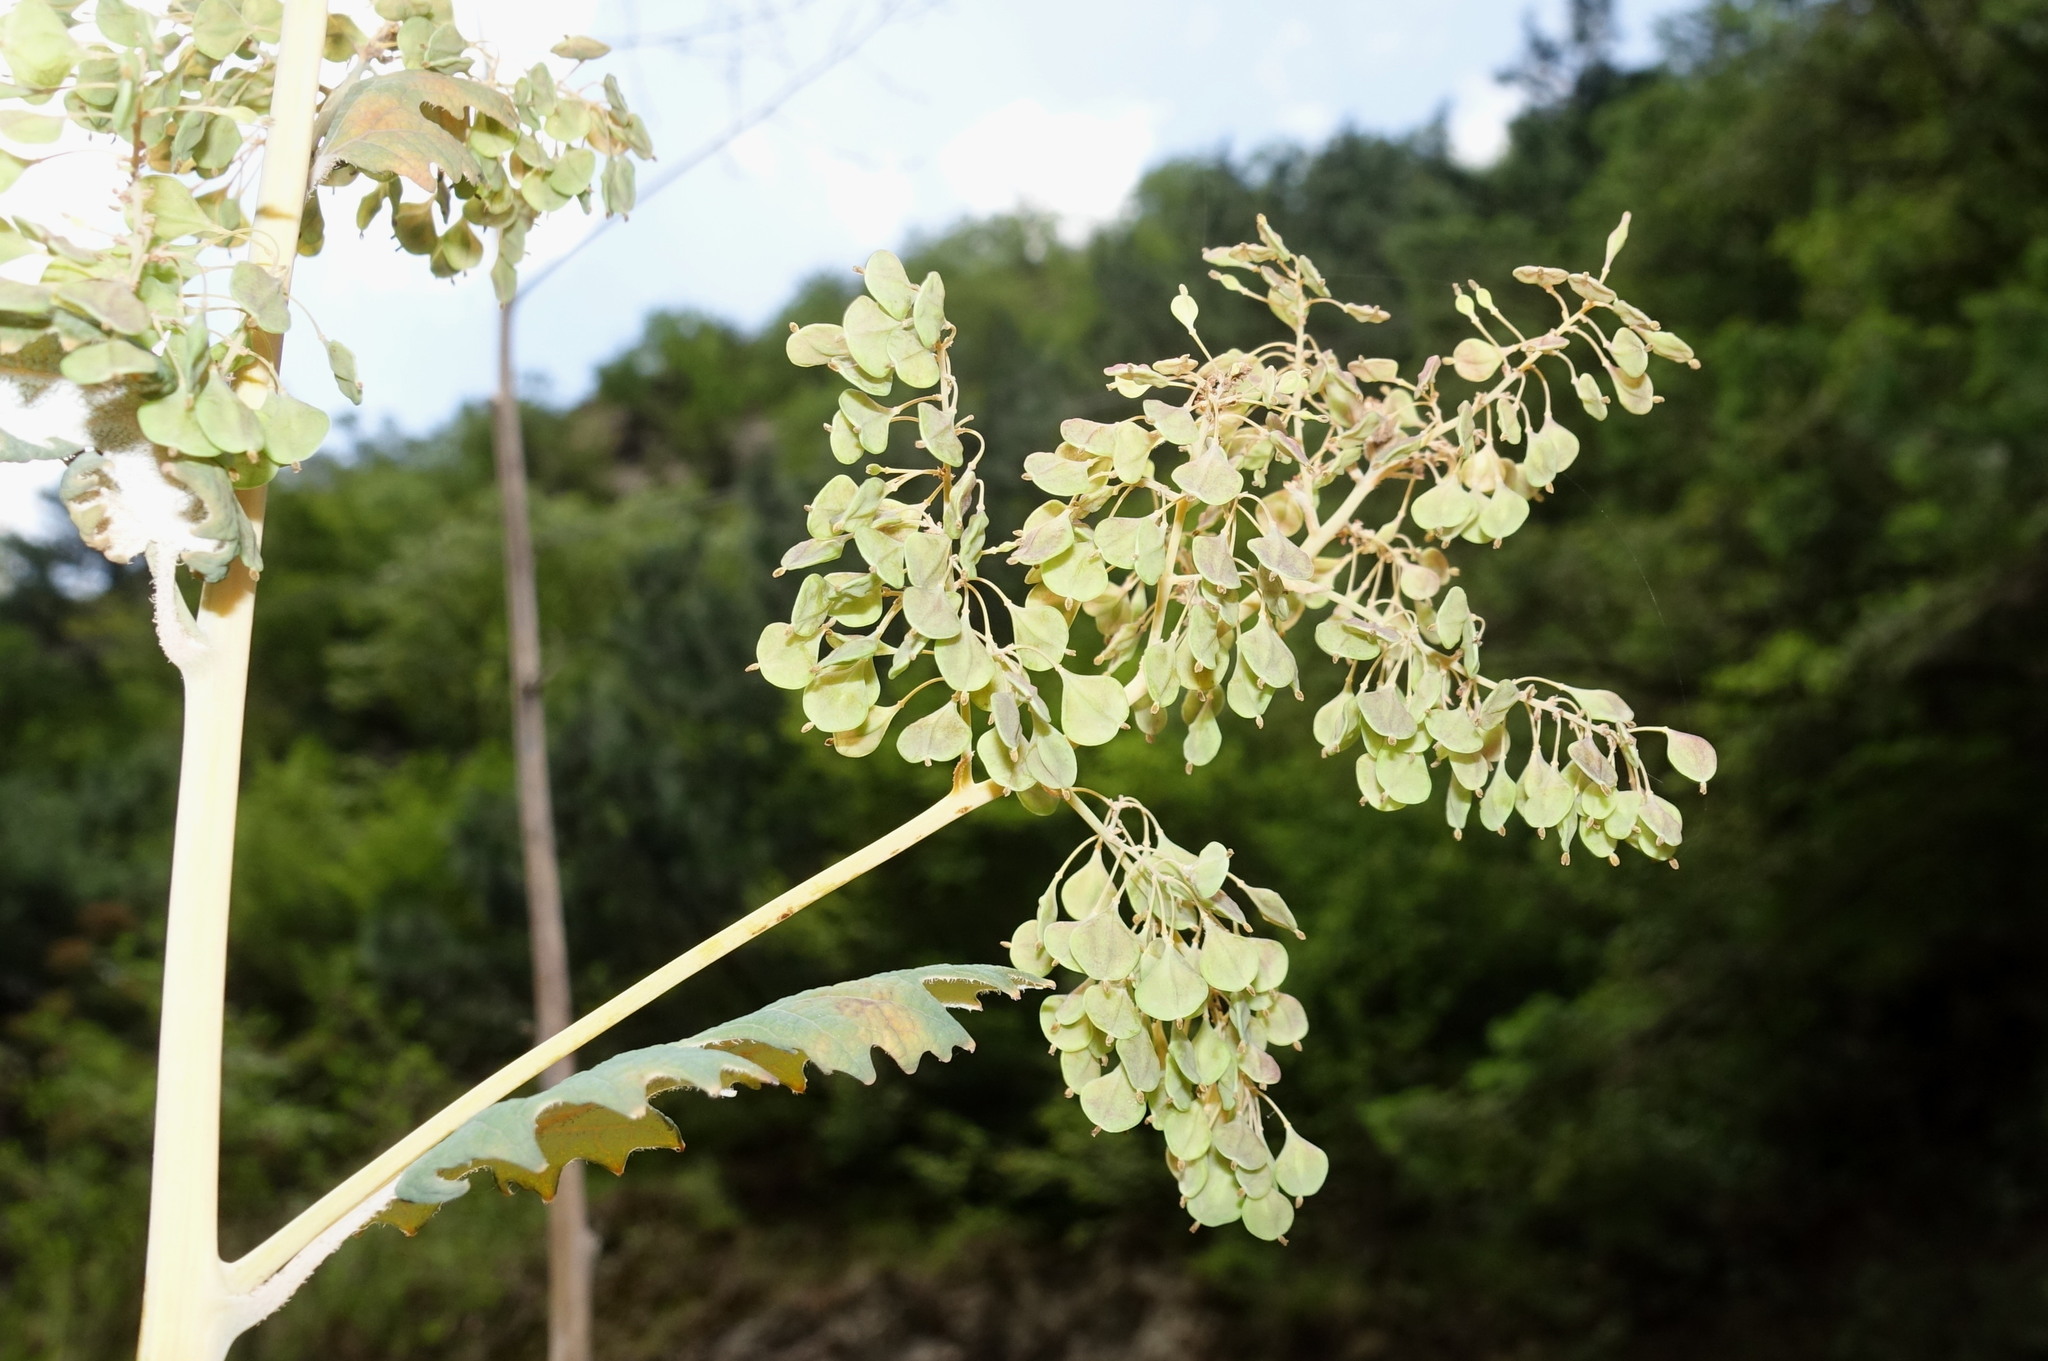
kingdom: Plantae
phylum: Tracheophyta
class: Magnoliopsida
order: Ranunculales
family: Papaveraceae
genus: Macleaya
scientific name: Macleaya cordata
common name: Plume poppy
